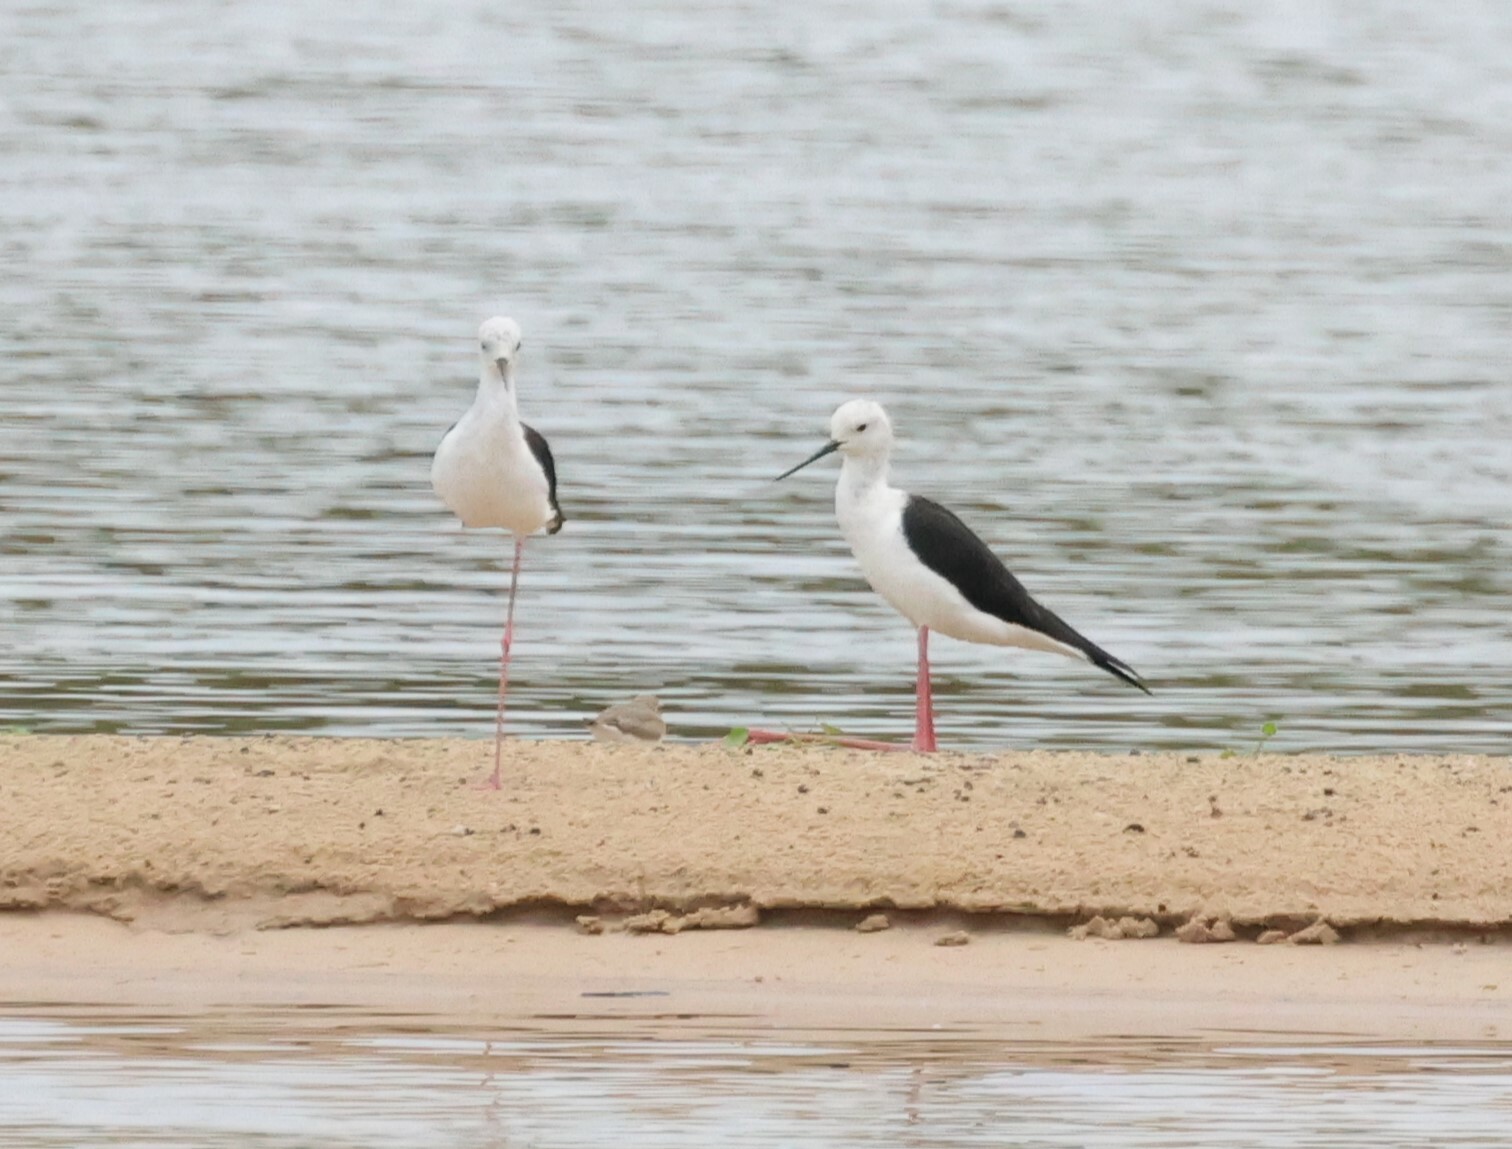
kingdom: Animalia
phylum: Chordata
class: Aves
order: Charadriiformes
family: Recurvirostridae
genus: Himantopus
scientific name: Himantopus himantopus
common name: Black-winged stilt
